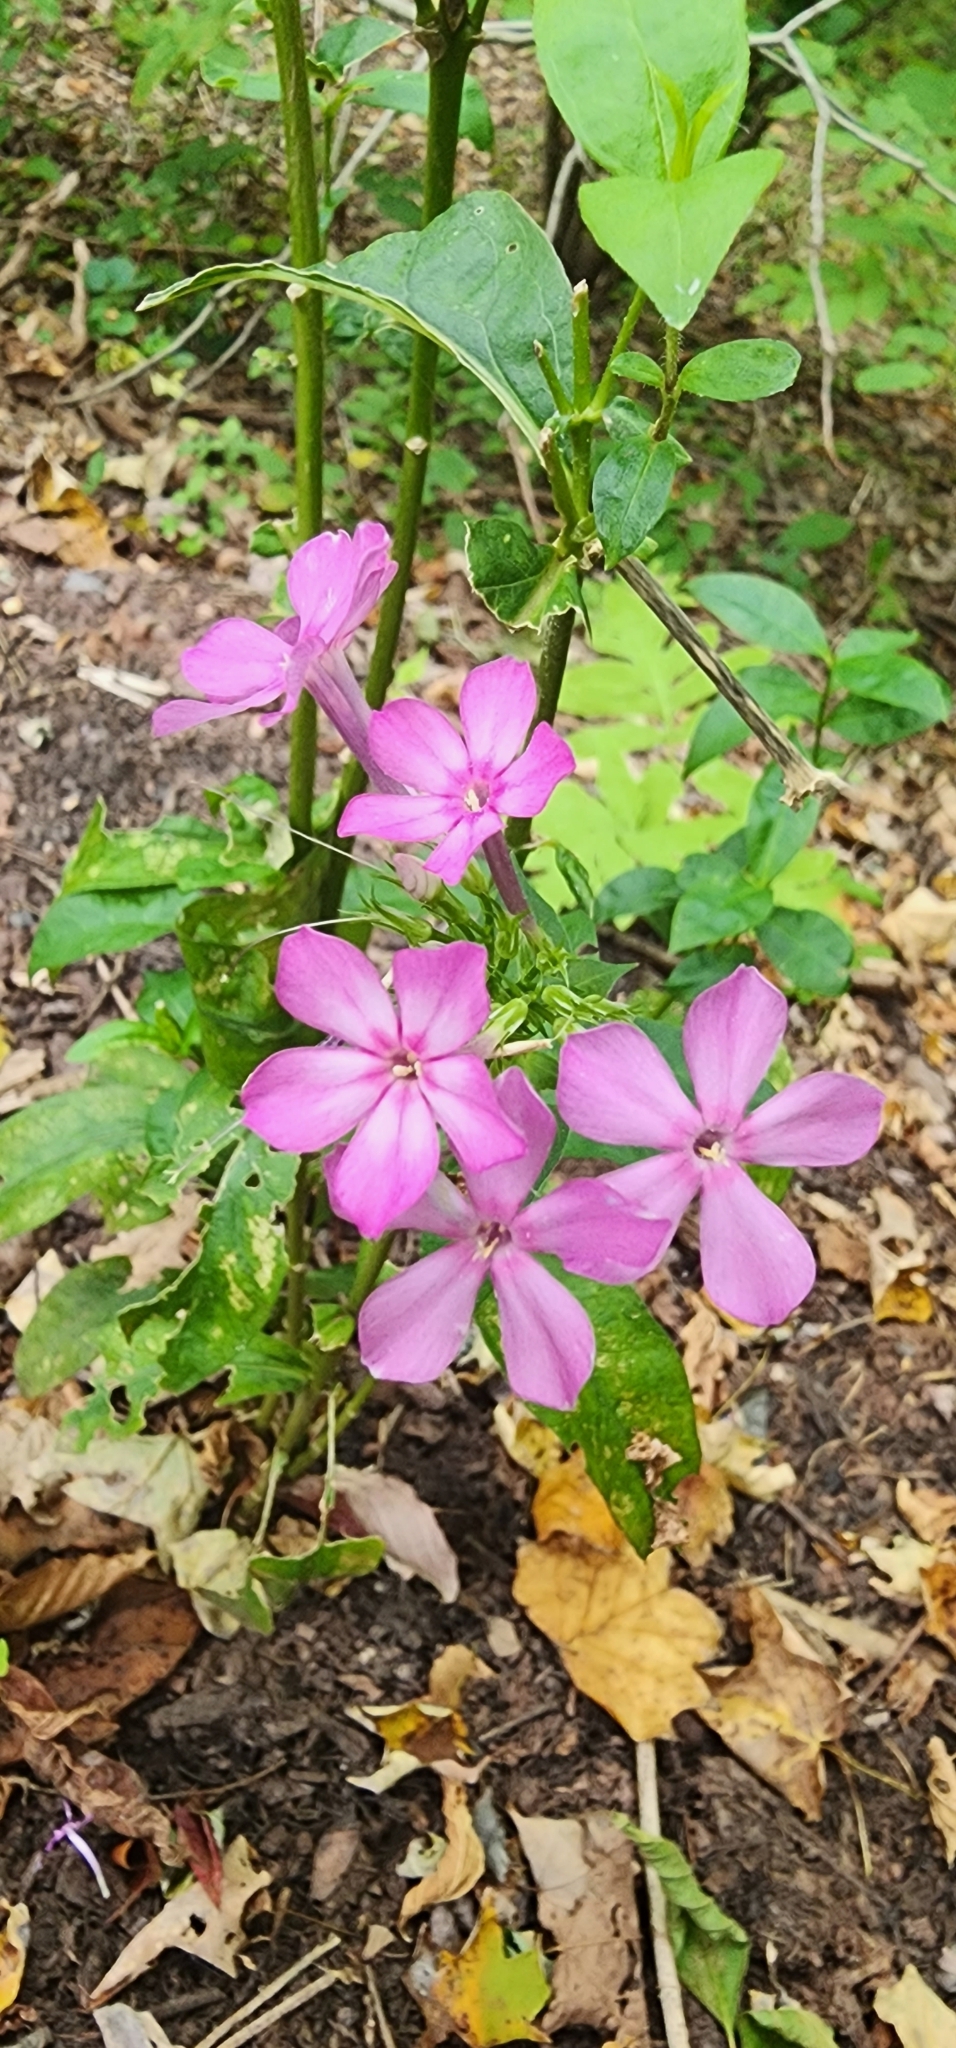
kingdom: Plantae
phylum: Tracheophyta
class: Magnoliopsida
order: Ericales
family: Polemoniaceae
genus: Phlox
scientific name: Phlox paniculata
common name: Fall phlox
